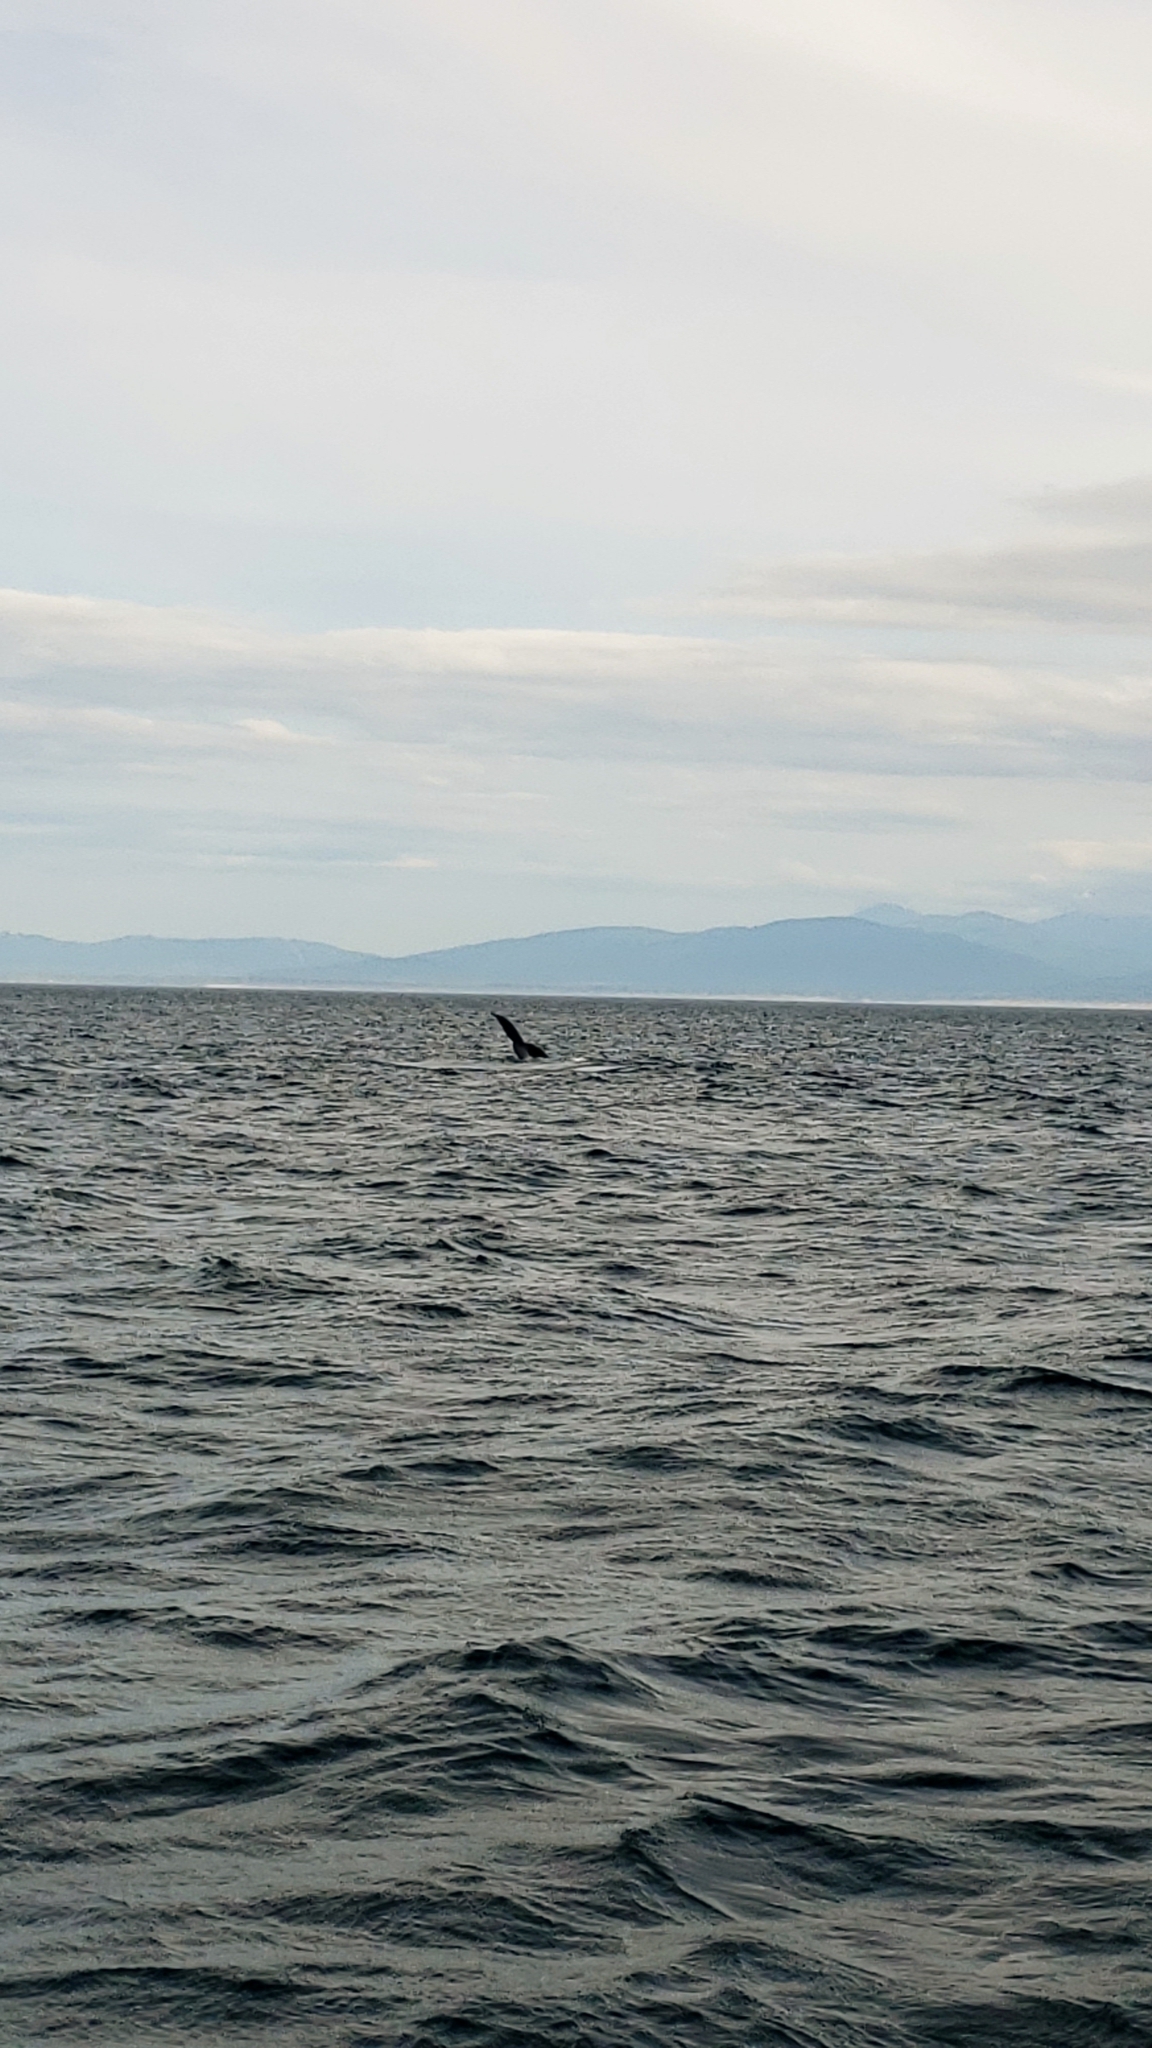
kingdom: Animalia
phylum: Chordata
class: Mammalia
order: Cetacea
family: Balaenopteridae
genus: Megaptera
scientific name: Megaptera novaeangliae
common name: Humpback whale
